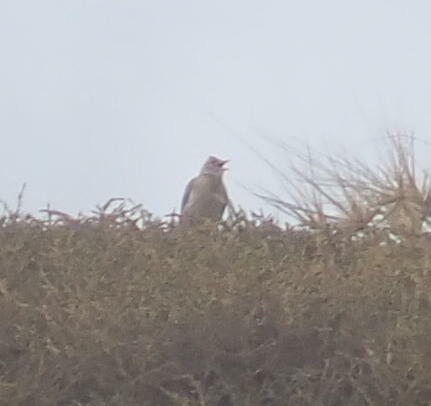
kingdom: Animalia
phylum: Chordata
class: Aves
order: Passeriformes
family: Alaudidae
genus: Alauda
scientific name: Alauda arvensis
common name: Eurasian skylark
